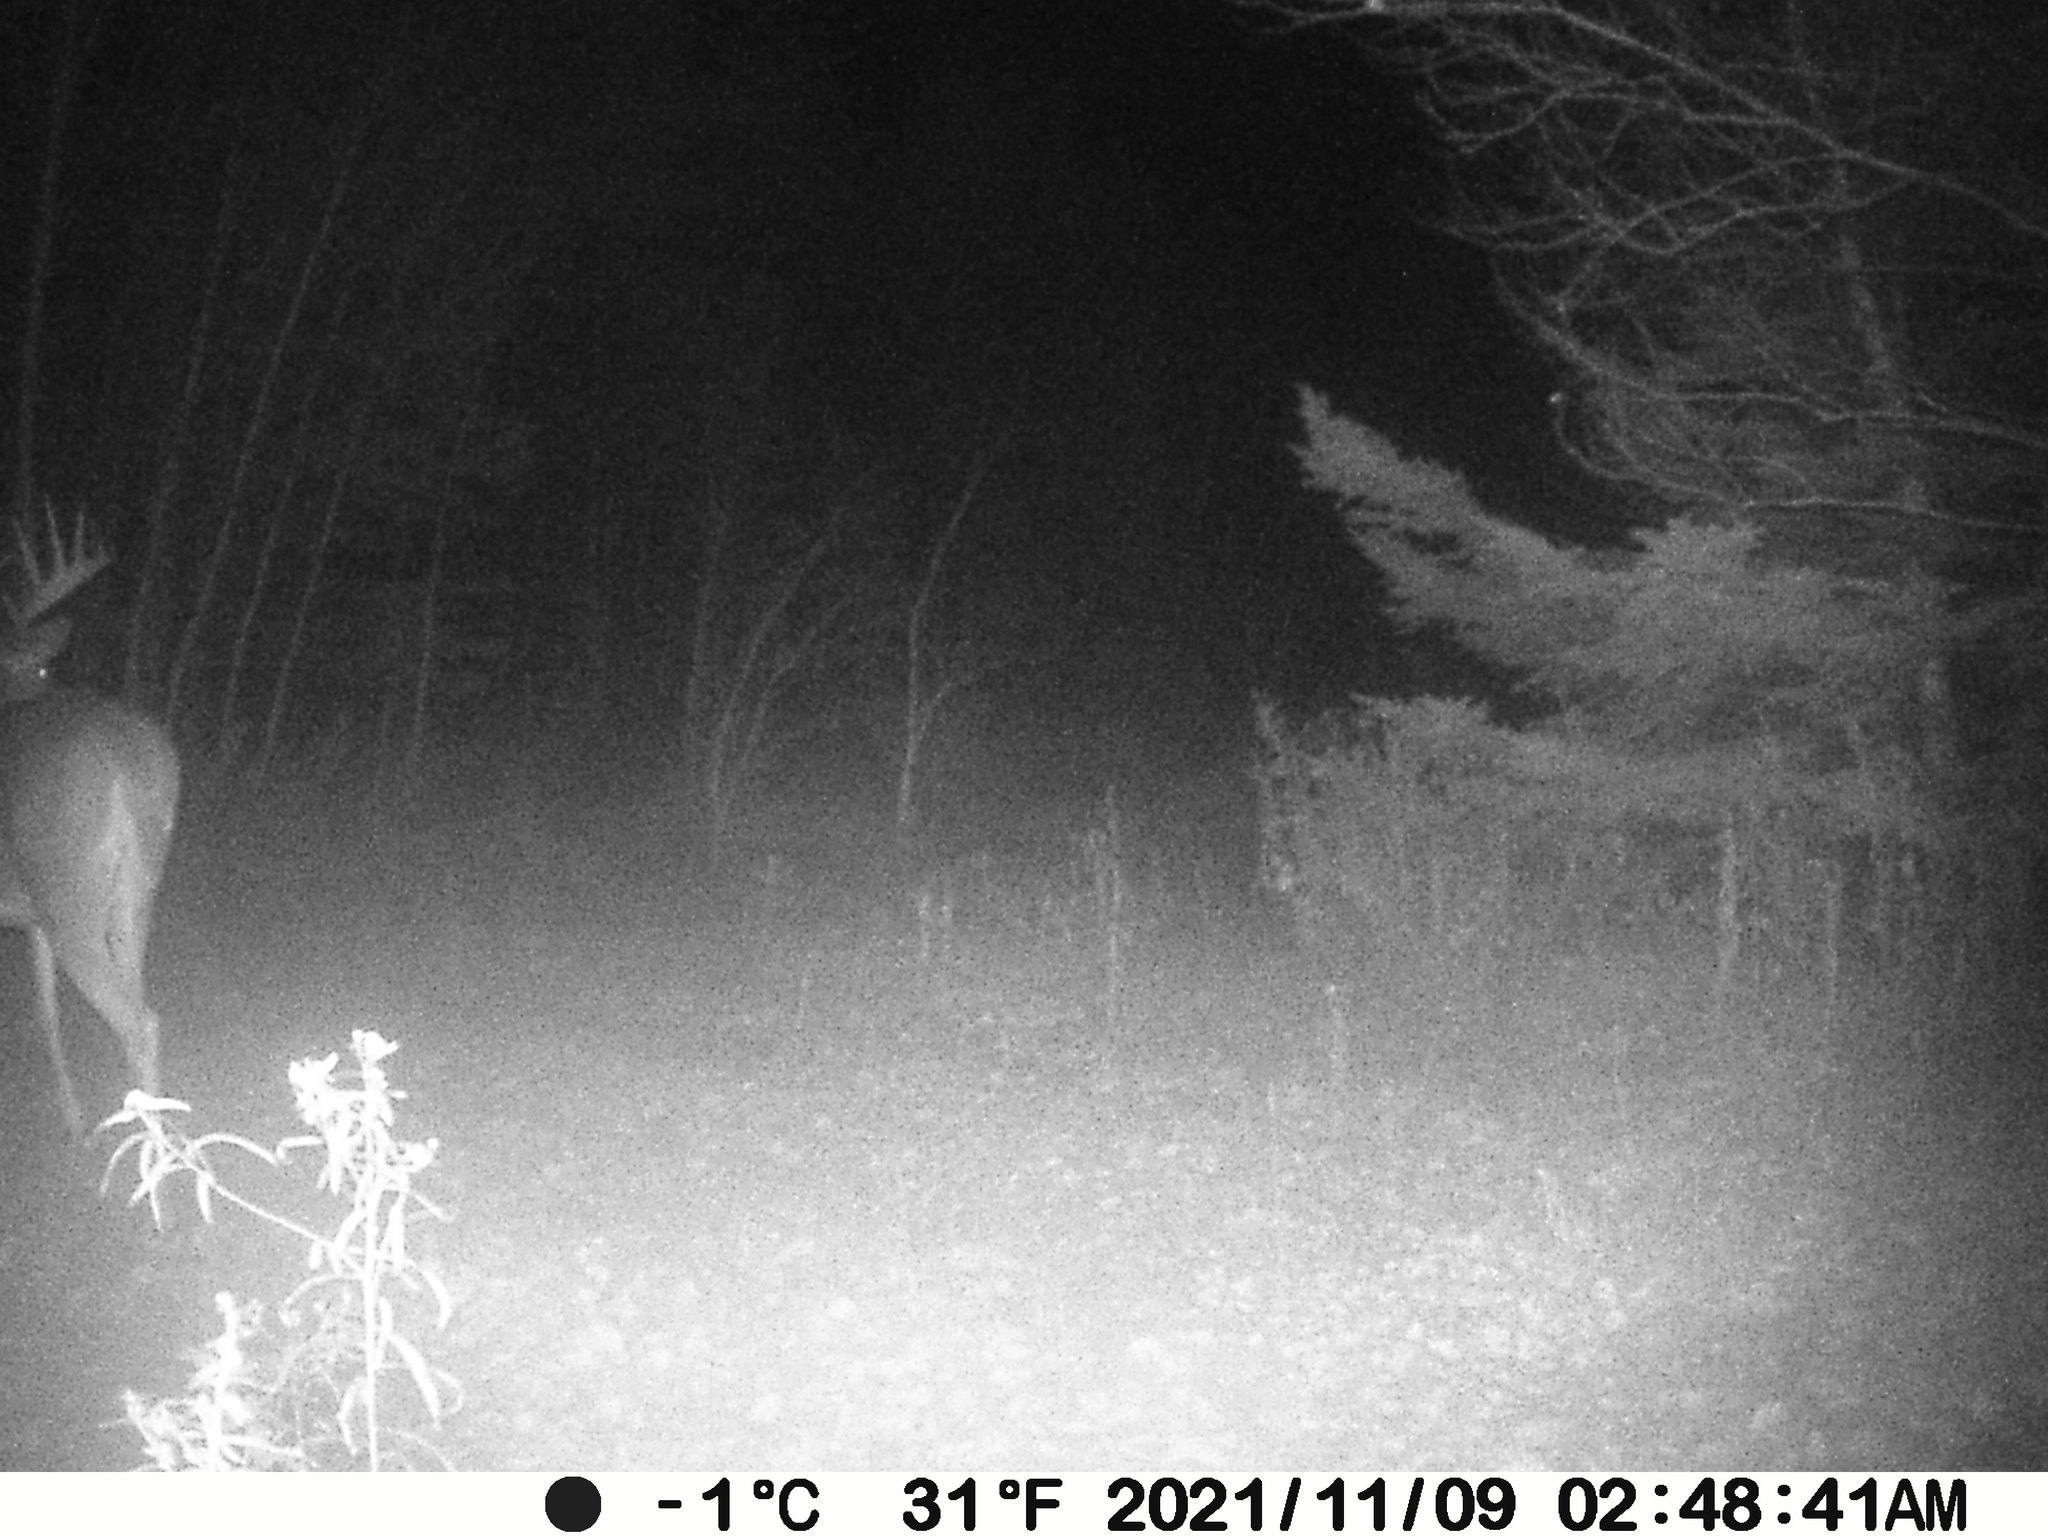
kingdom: Animalia
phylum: Chordata
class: Mammalia
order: Artiodactyla
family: Cervidae
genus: Odocoileus
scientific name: Odocoileus virginianus
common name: White-tailed deer
